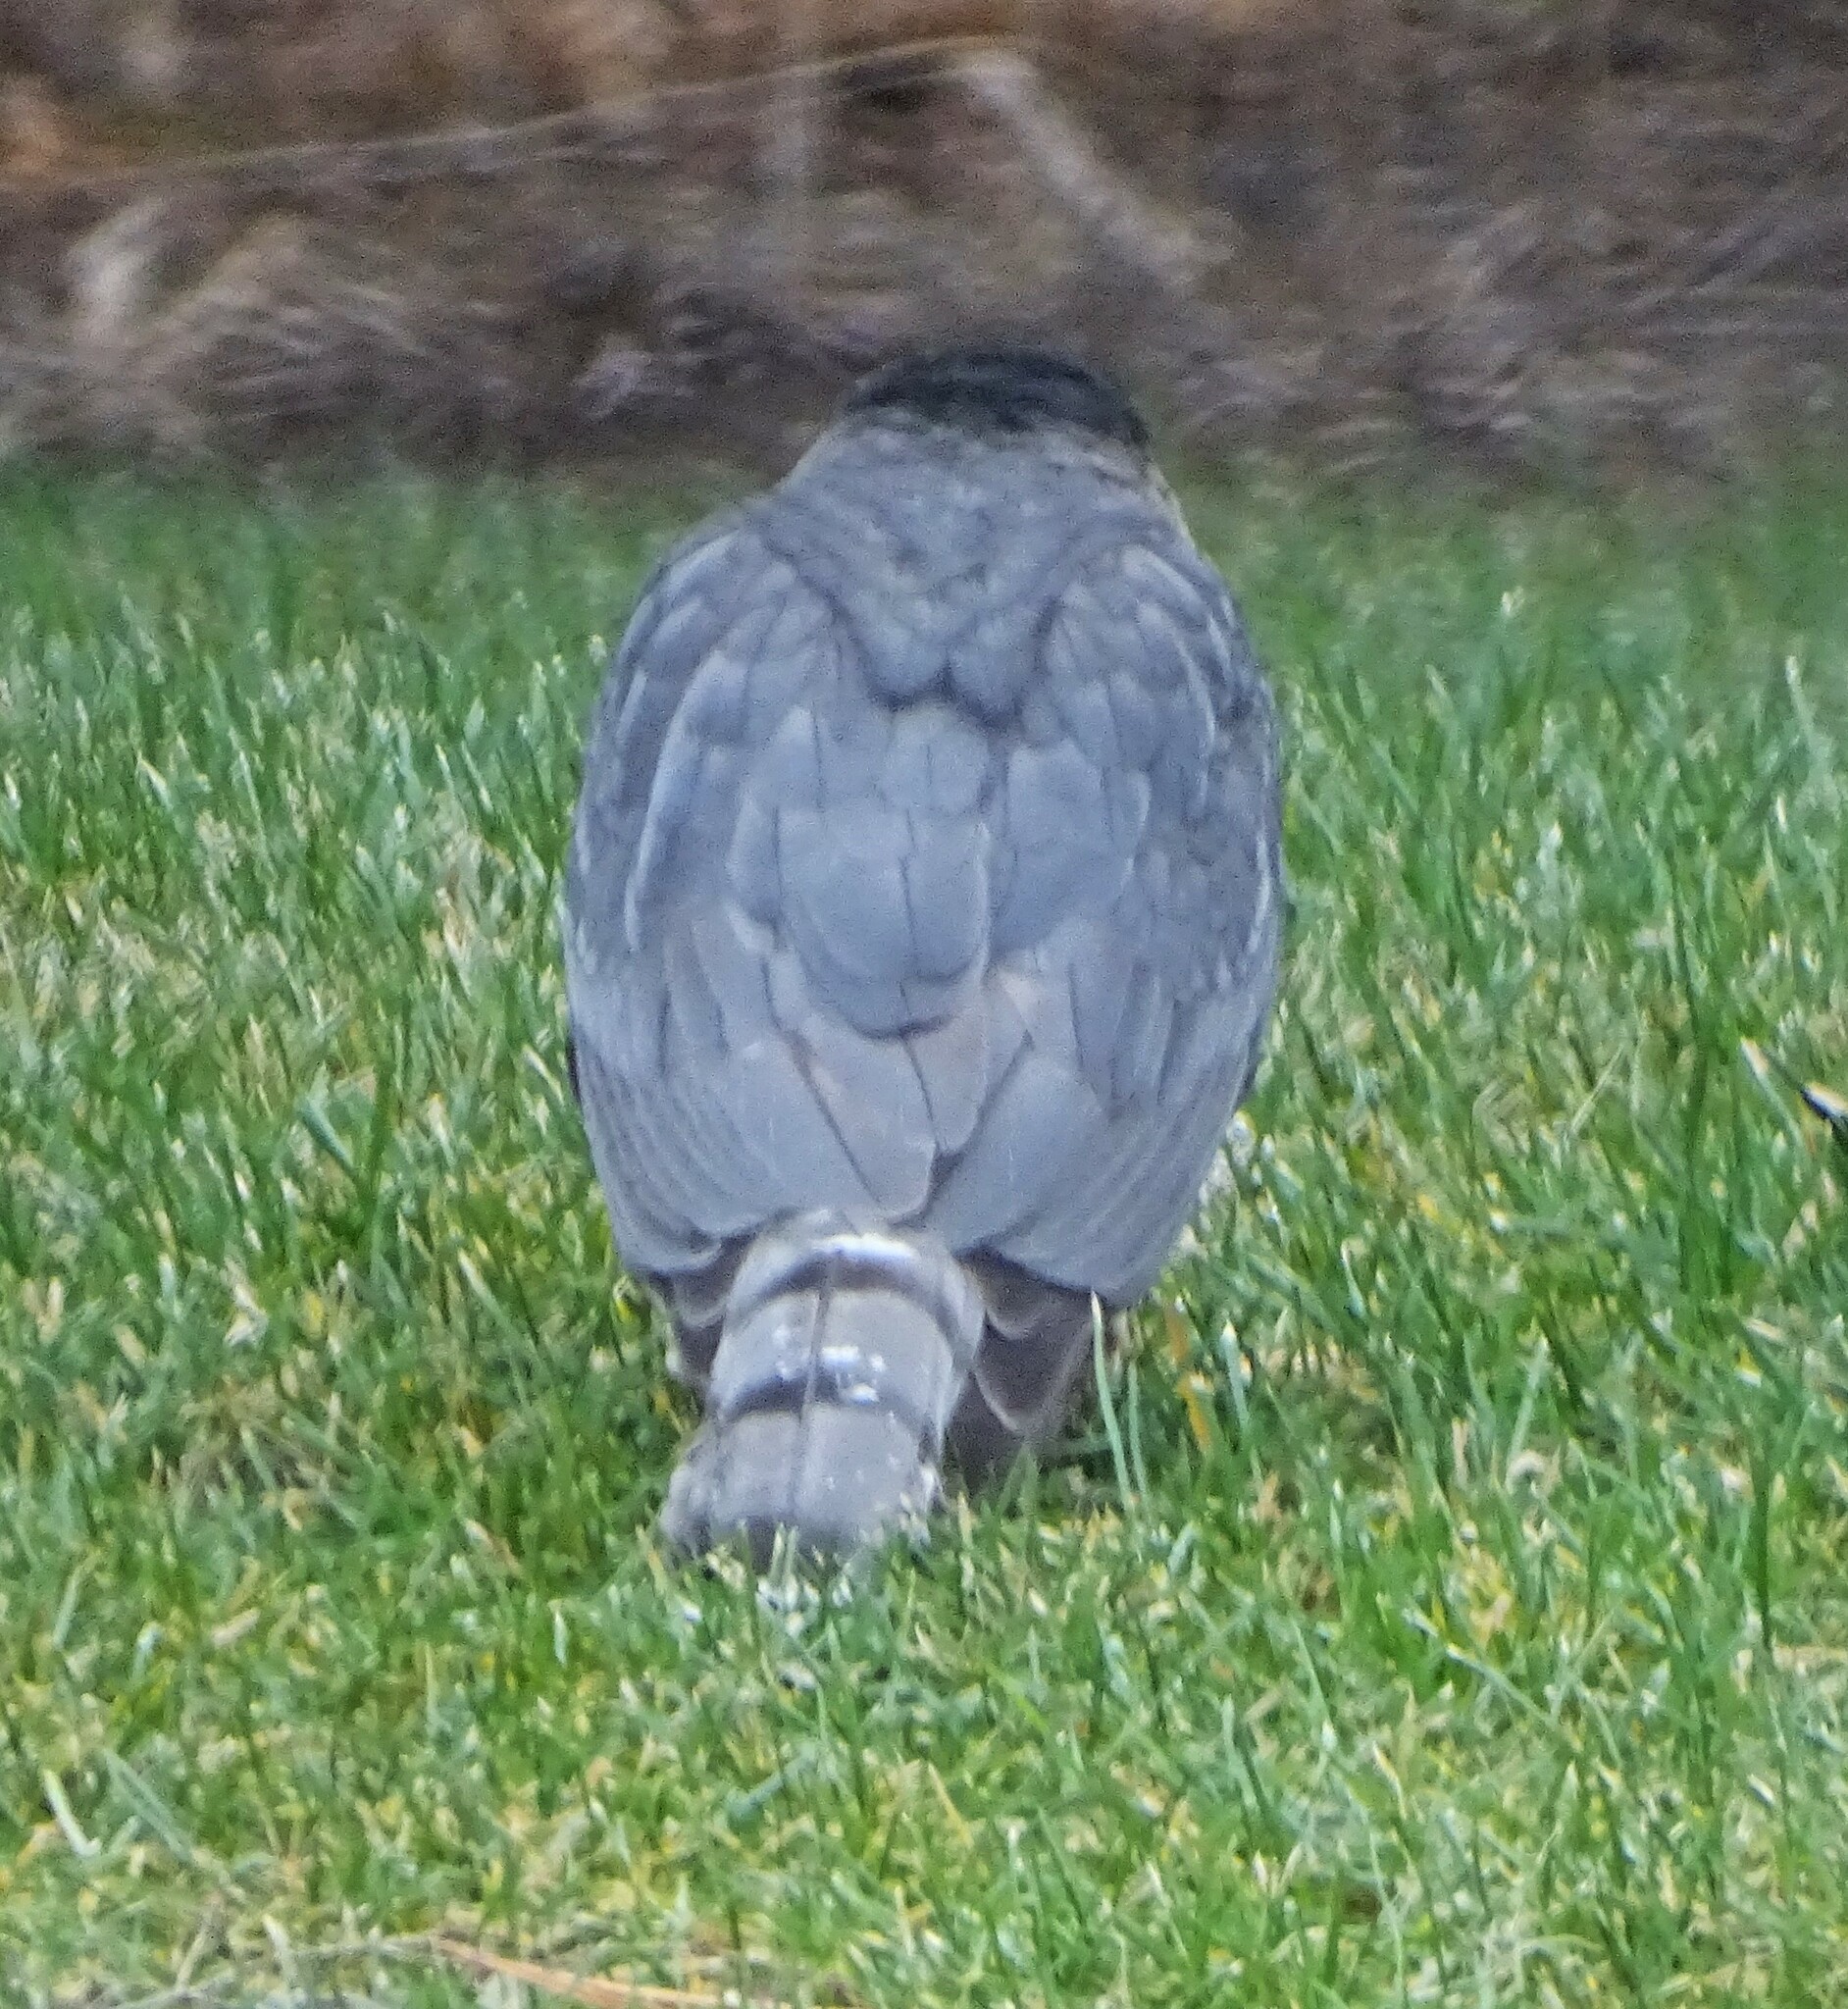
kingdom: Animalia
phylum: Chordata
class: Aves
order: Accipitriformes
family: Accipitridae
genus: Accipiter
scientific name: Accipiter
